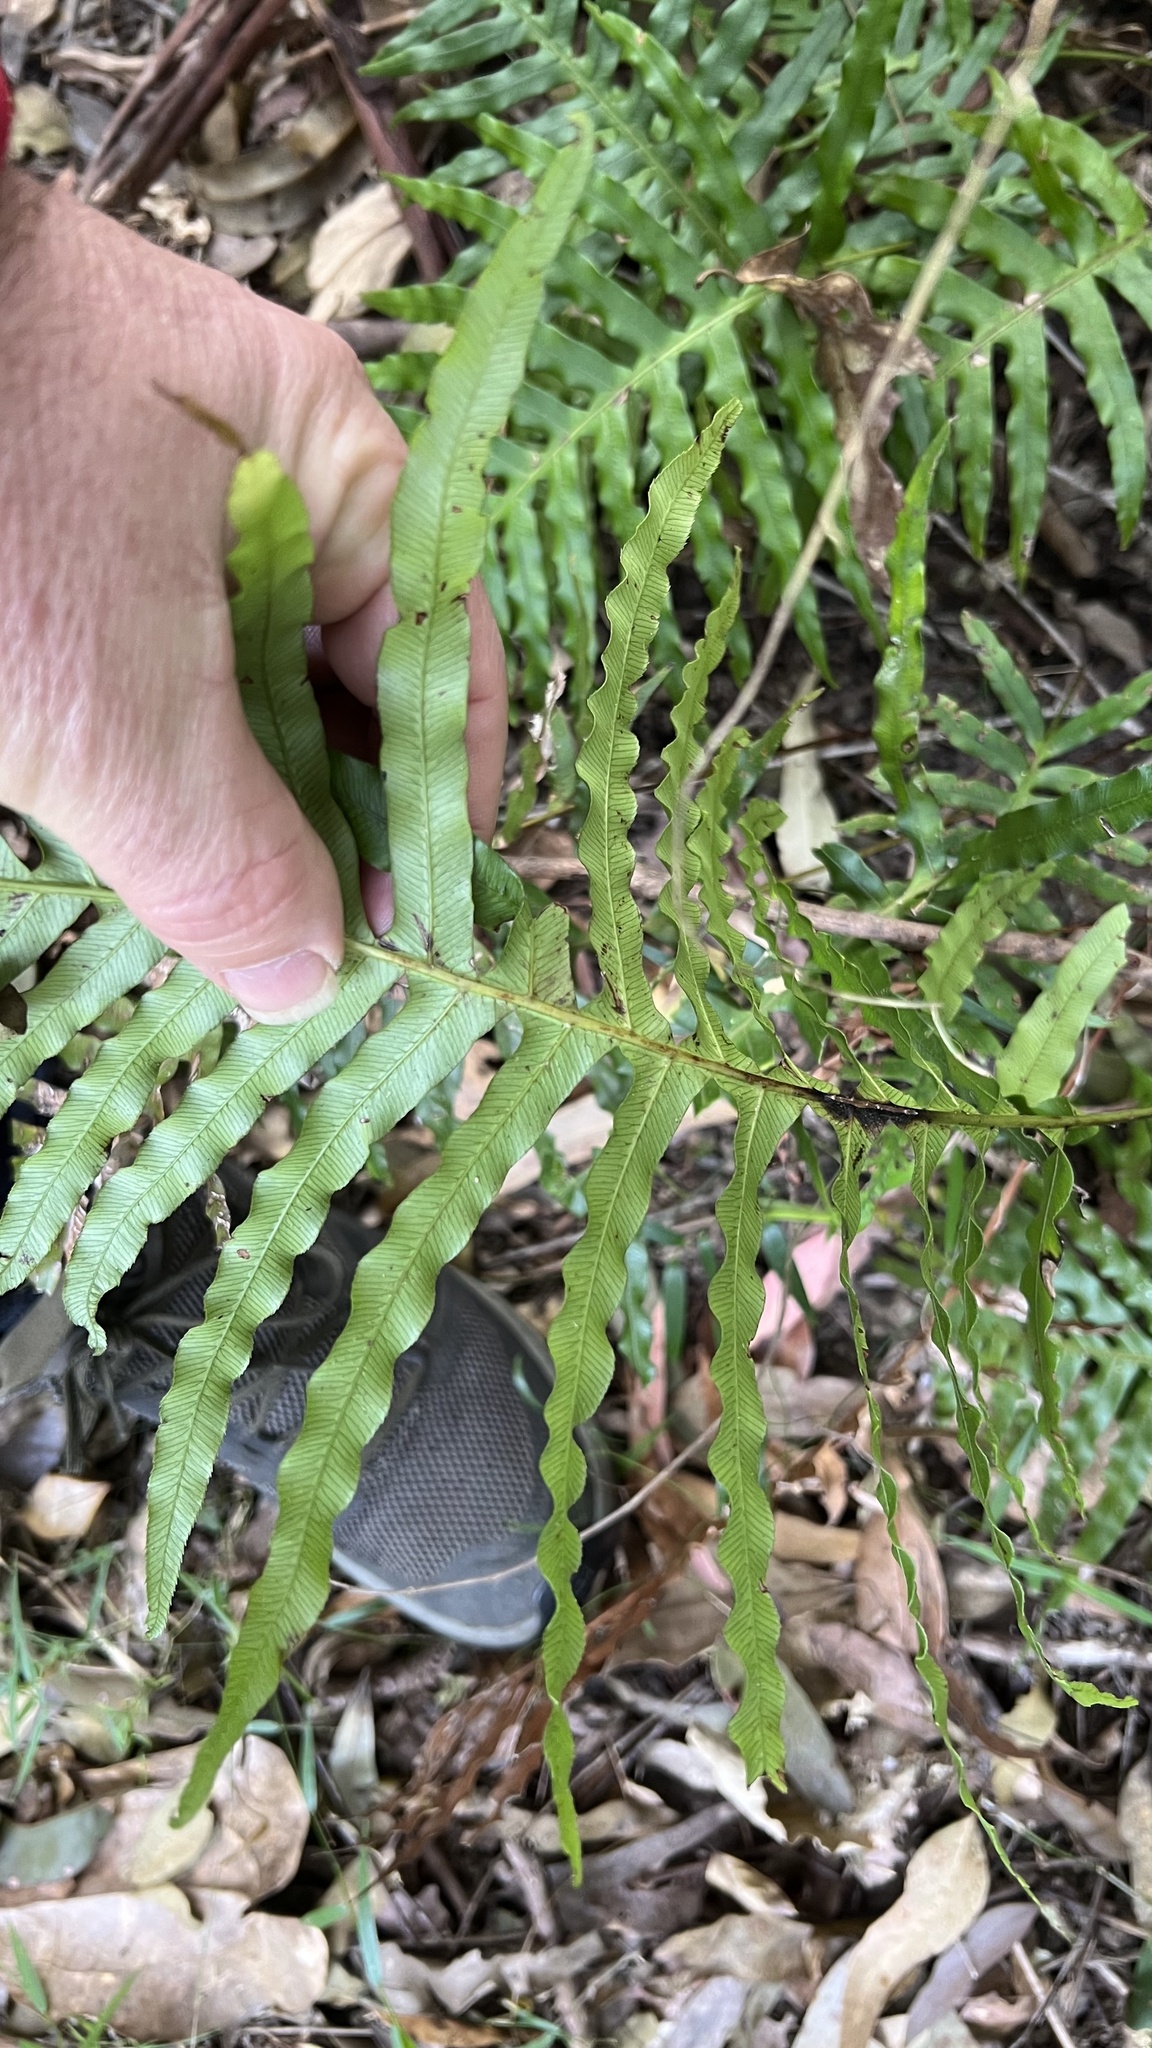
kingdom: Plantae
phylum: Tracheophyta
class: Polypodiopsida
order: Polypodiales
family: Blechnaceae
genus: Oceaniopteris
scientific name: Oceaniopteris cartilaginea
